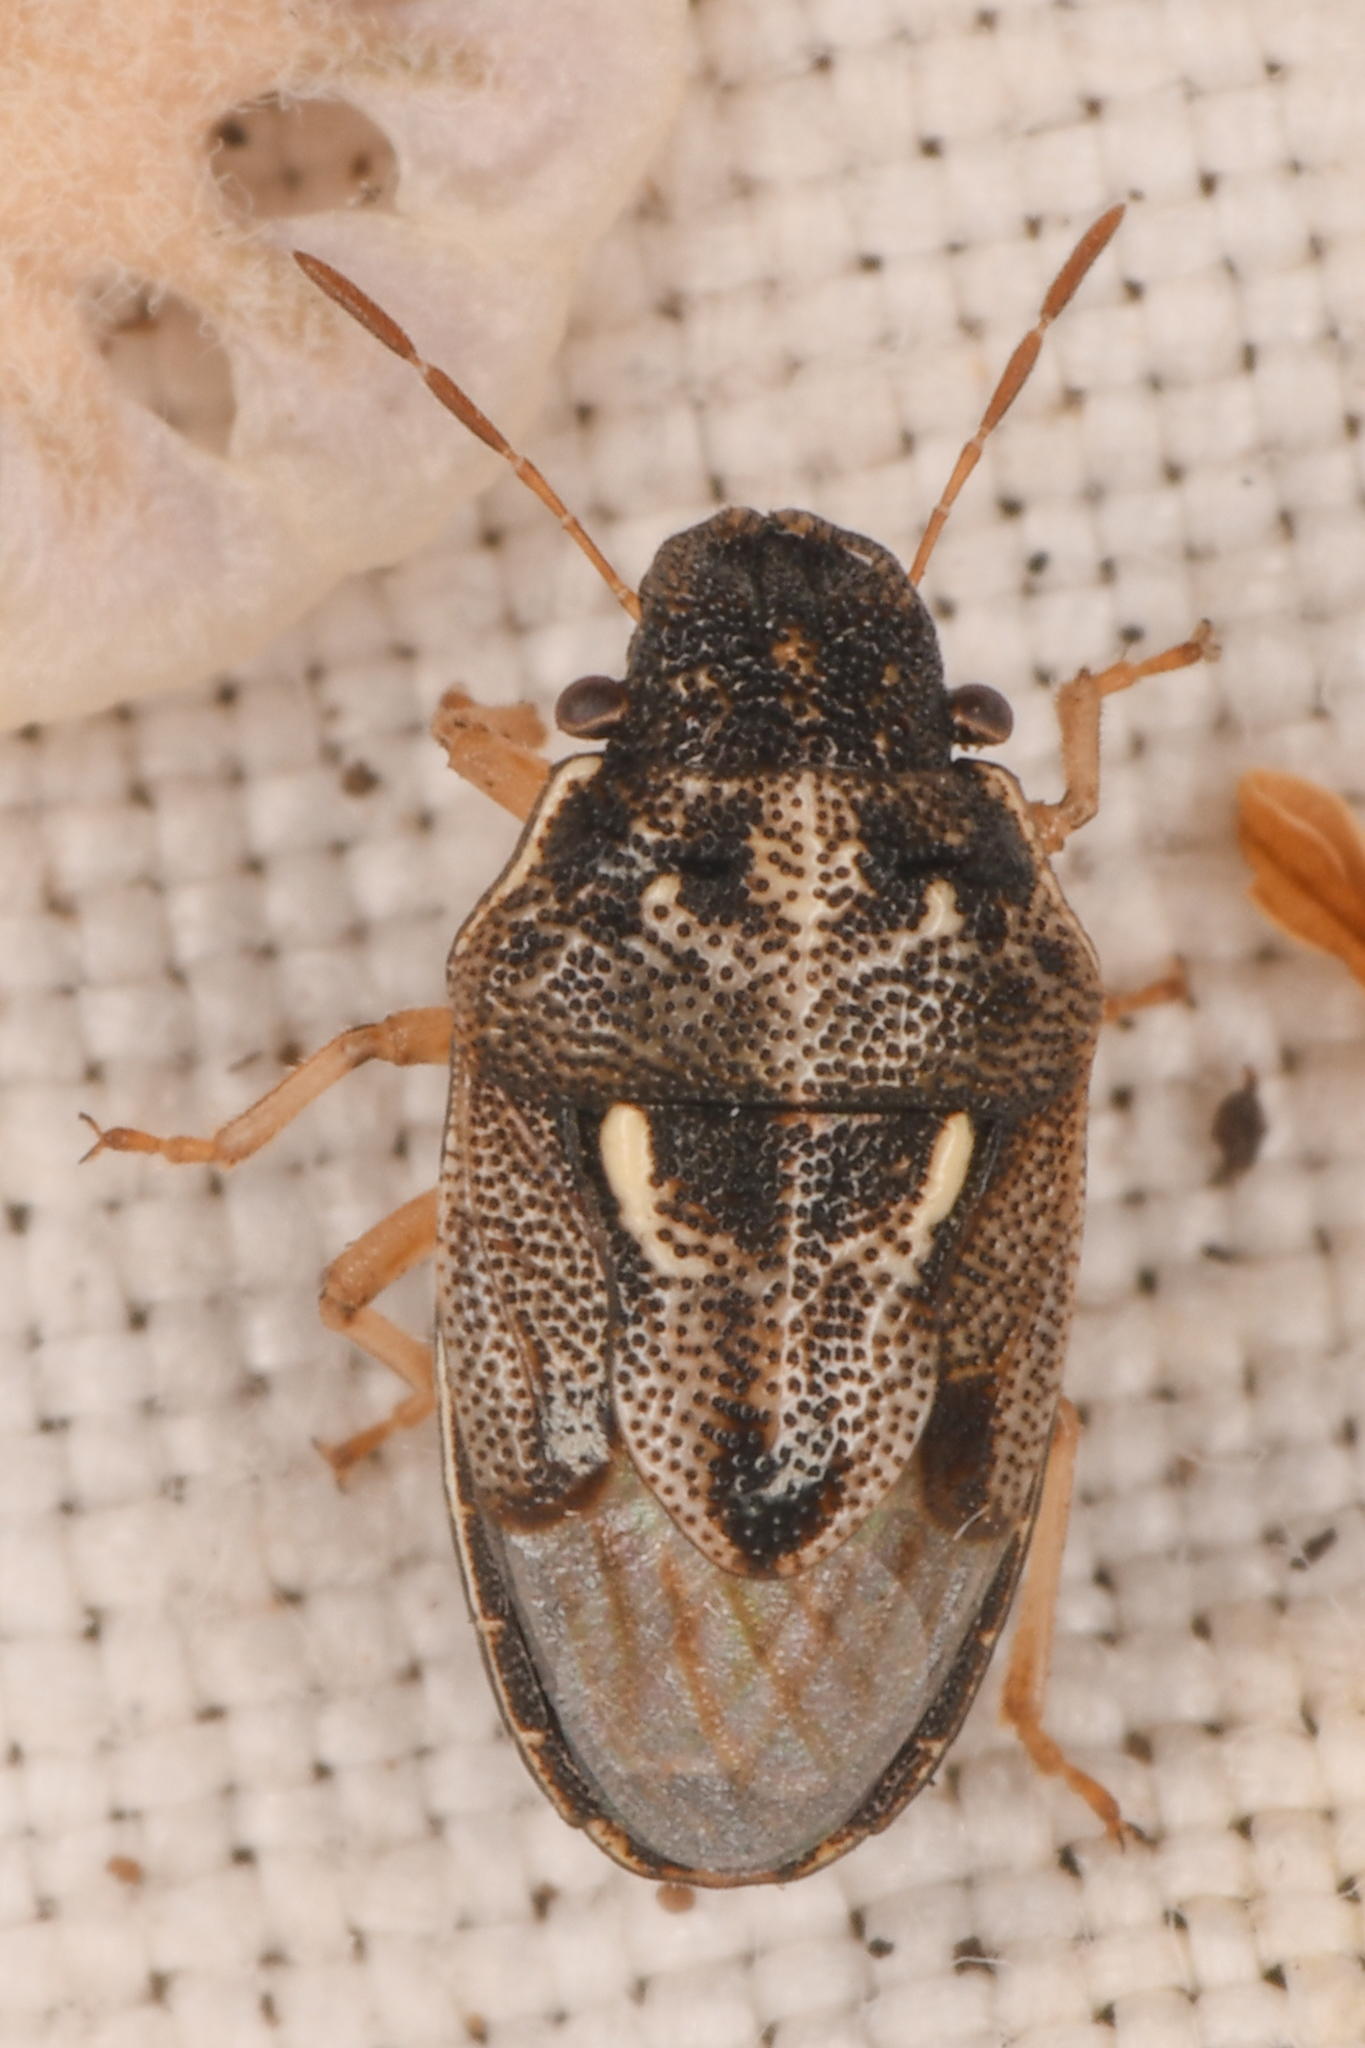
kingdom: Animalia
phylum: Arthropoda
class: Insecta
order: Hemiptera
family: Pentatomidae
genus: Neottiglossa
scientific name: Neottiglossa tumidifrons
